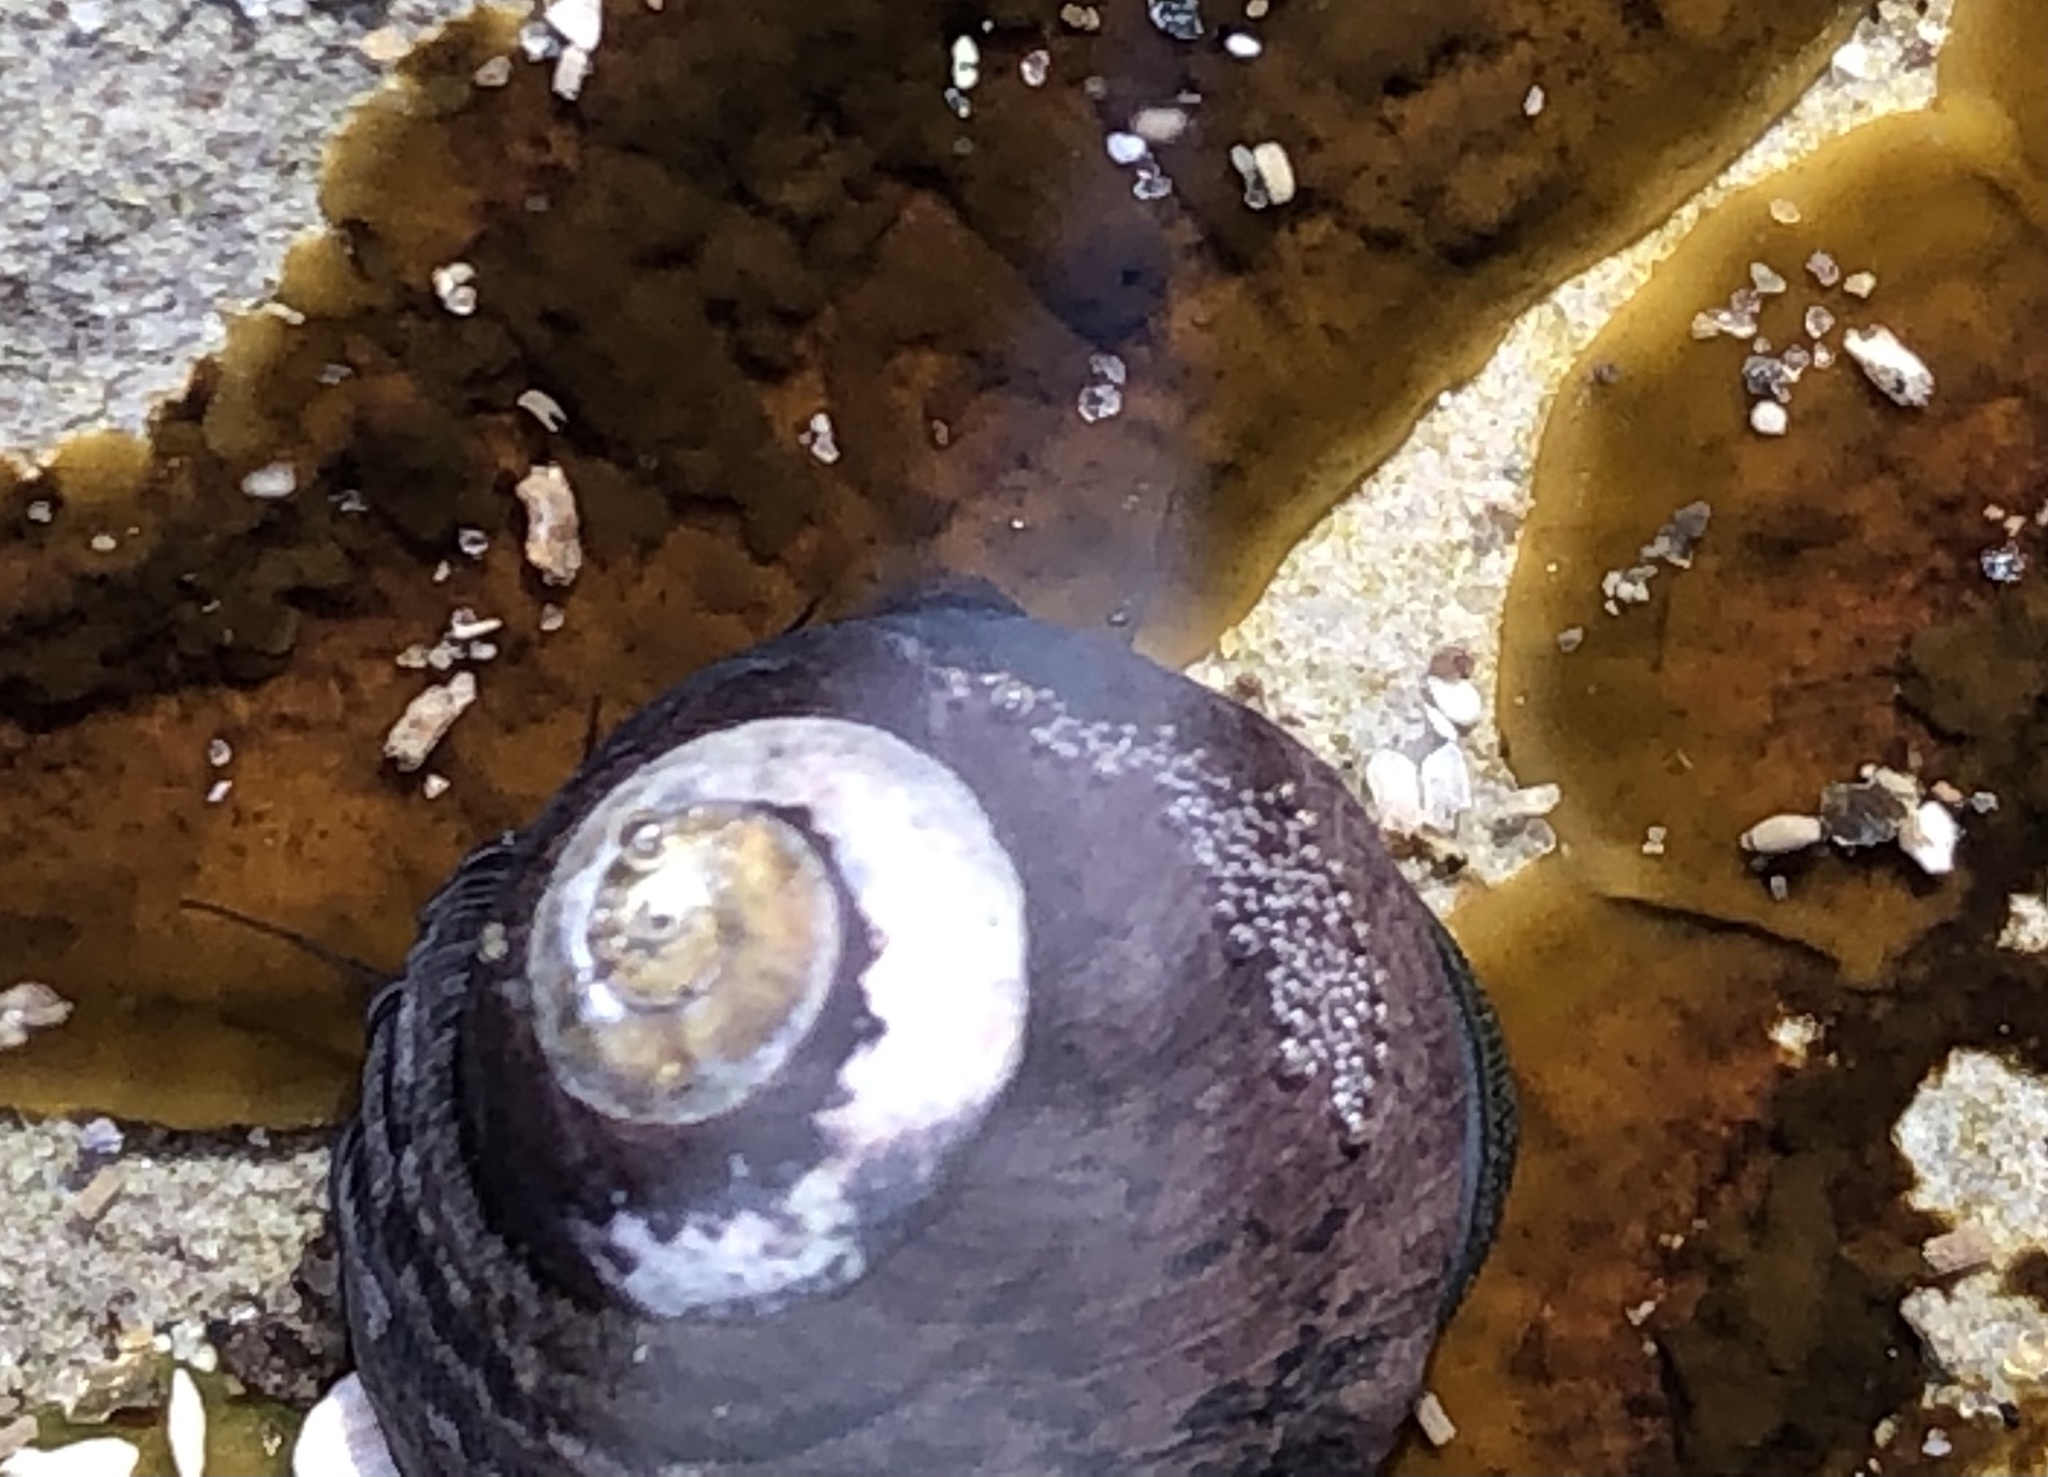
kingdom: Animalia
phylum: Mollusca
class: Gastropoda
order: Trochida
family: Tegulidae
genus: Tegula
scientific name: Tegula funebralis
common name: Black tegula
